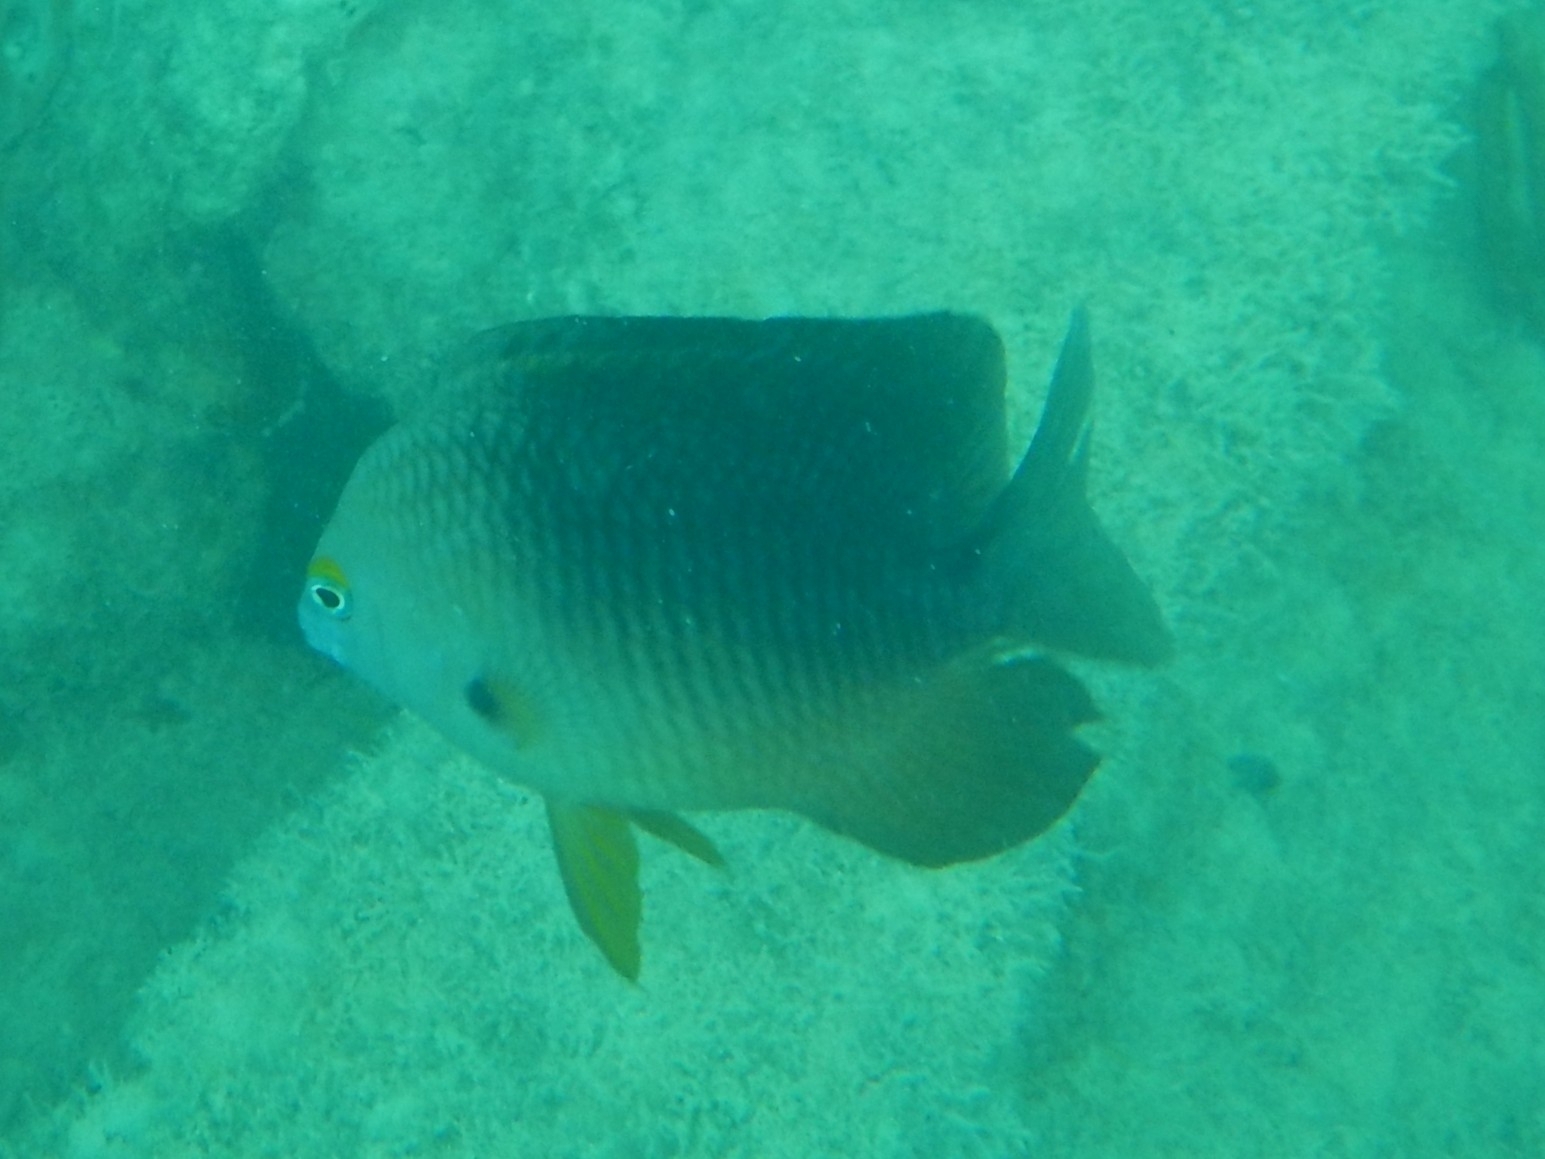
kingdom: Animalia
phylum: Chordata
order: Perciformes
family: Pomacentridae
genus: Stegastes
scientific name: Stegastes planifrons
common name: Threespot damselfish
